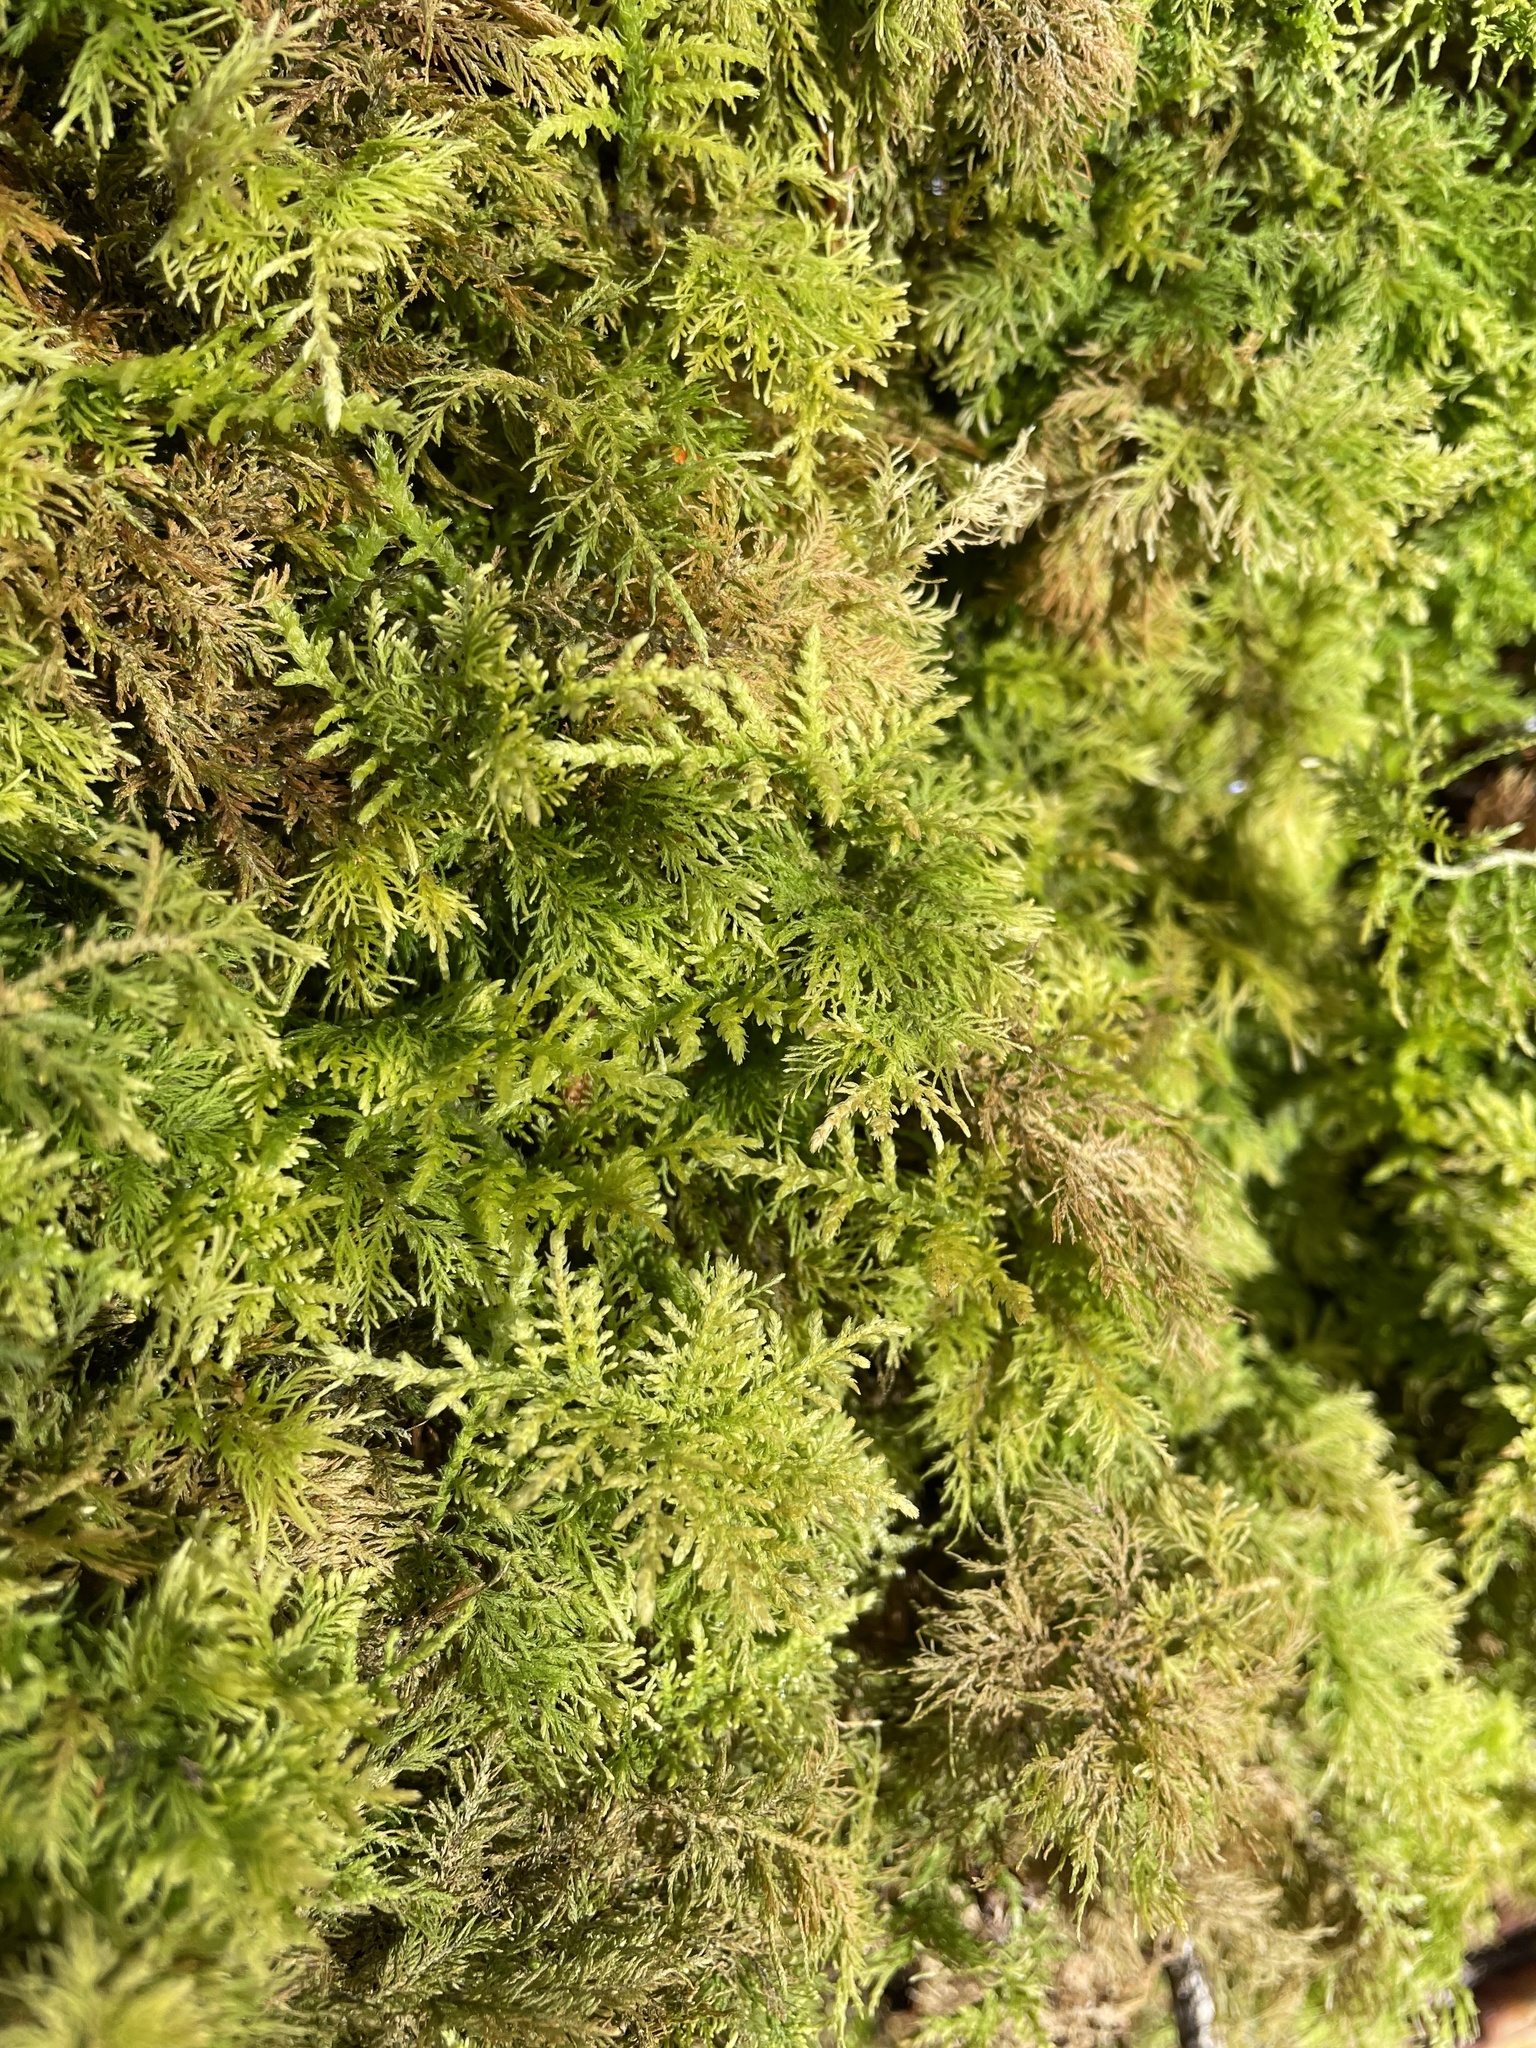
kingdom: Plantae
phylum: Bryophyta
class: Bryopsida
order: Hypnales
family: Thuidiaceae
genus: Thuidium
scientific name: Thuidium tamariscinum
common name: Common tamarisk-moss
